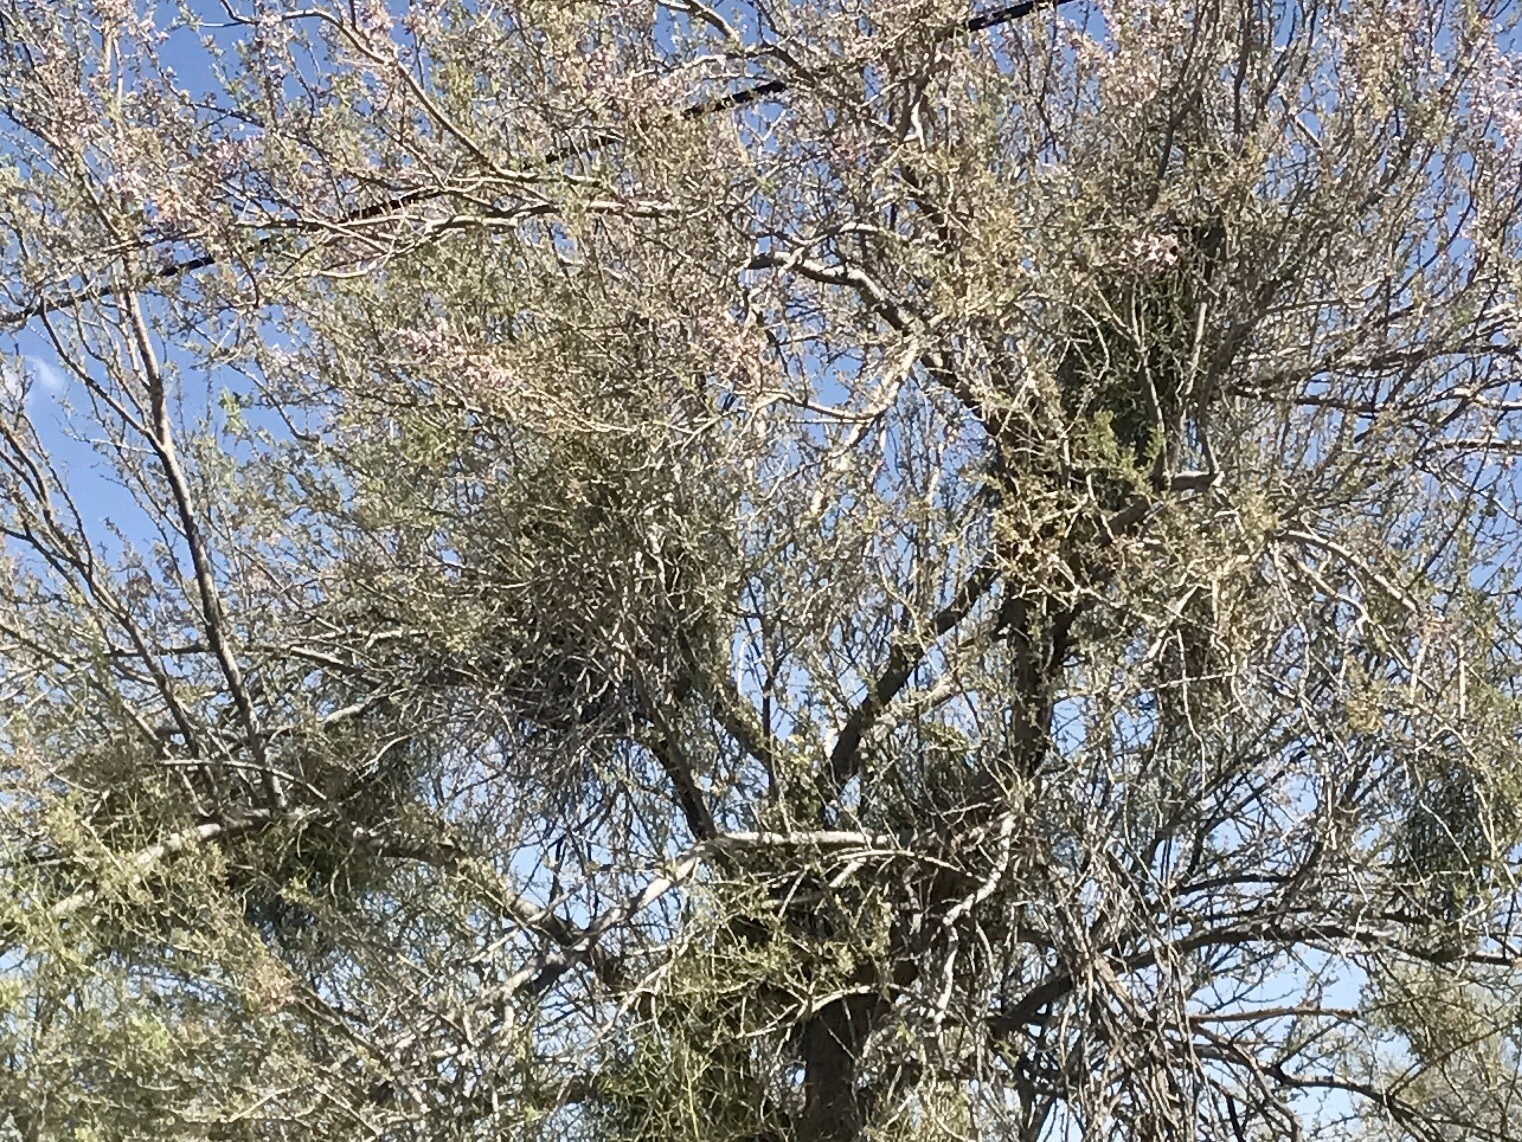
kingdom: Plantae
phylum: Tracheophyta
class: Magnoliopsida
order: Santalales
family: Viscaceae
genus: Phoradendron
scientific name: Phoradendron californicum
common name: Acacia mistletoe
